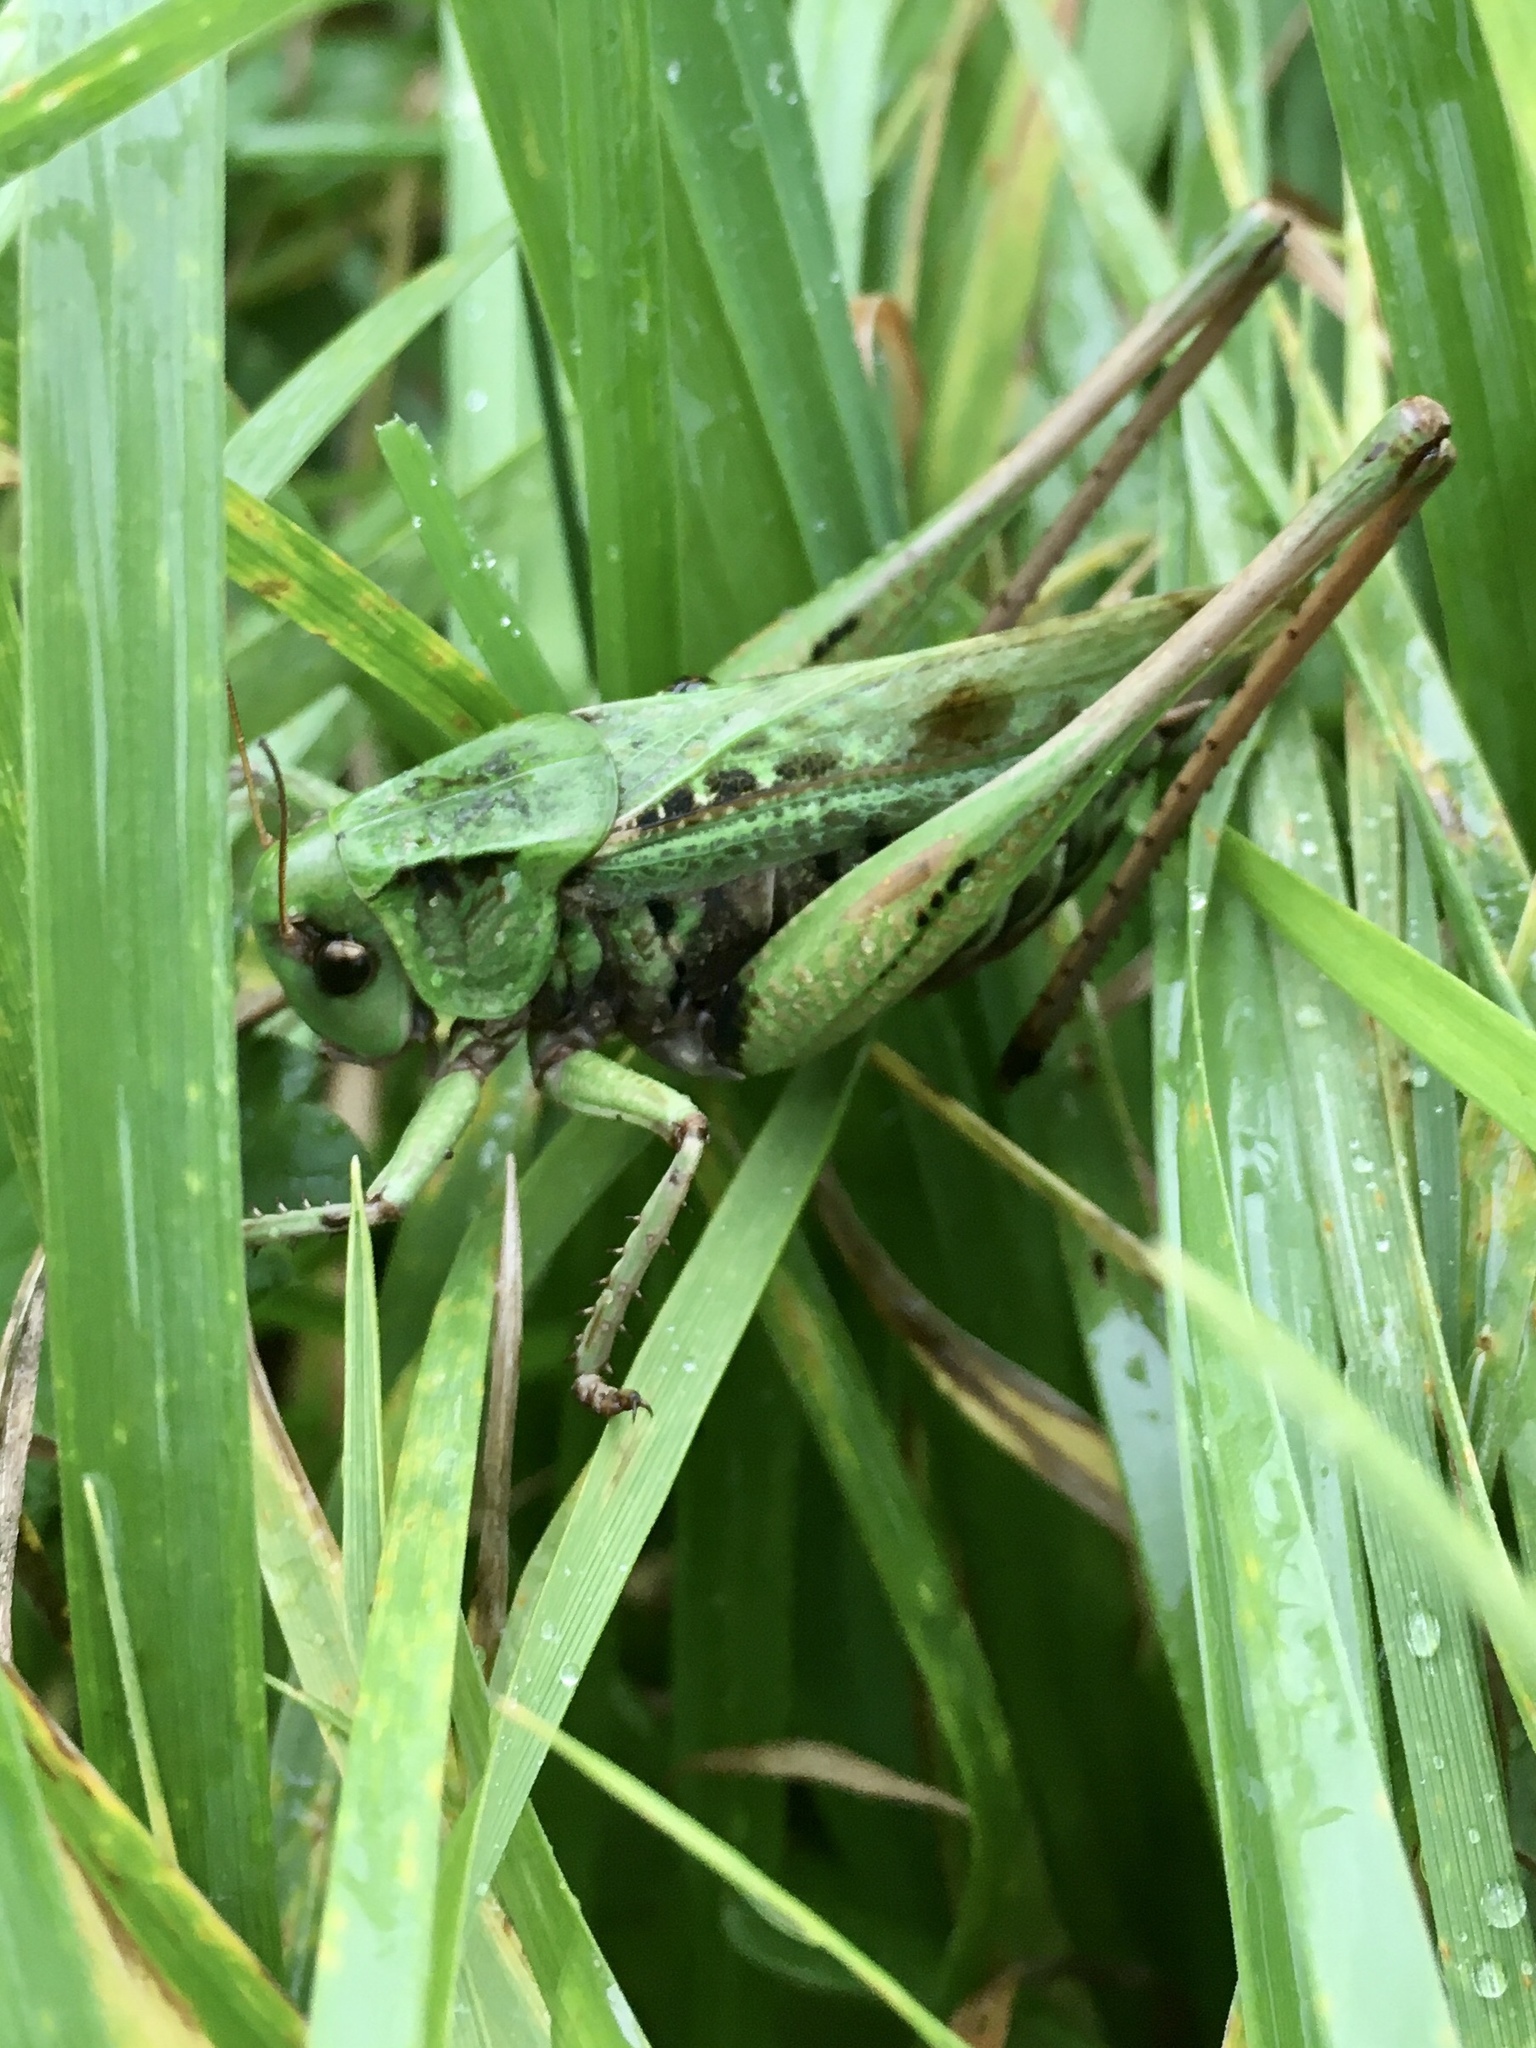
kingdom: Animalia
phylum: Arthropoda
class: Insecta
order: Orthoptera
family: Tettigoniidae
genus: Decticus
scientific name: Decticus verrucivorus
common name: Wart-biter
